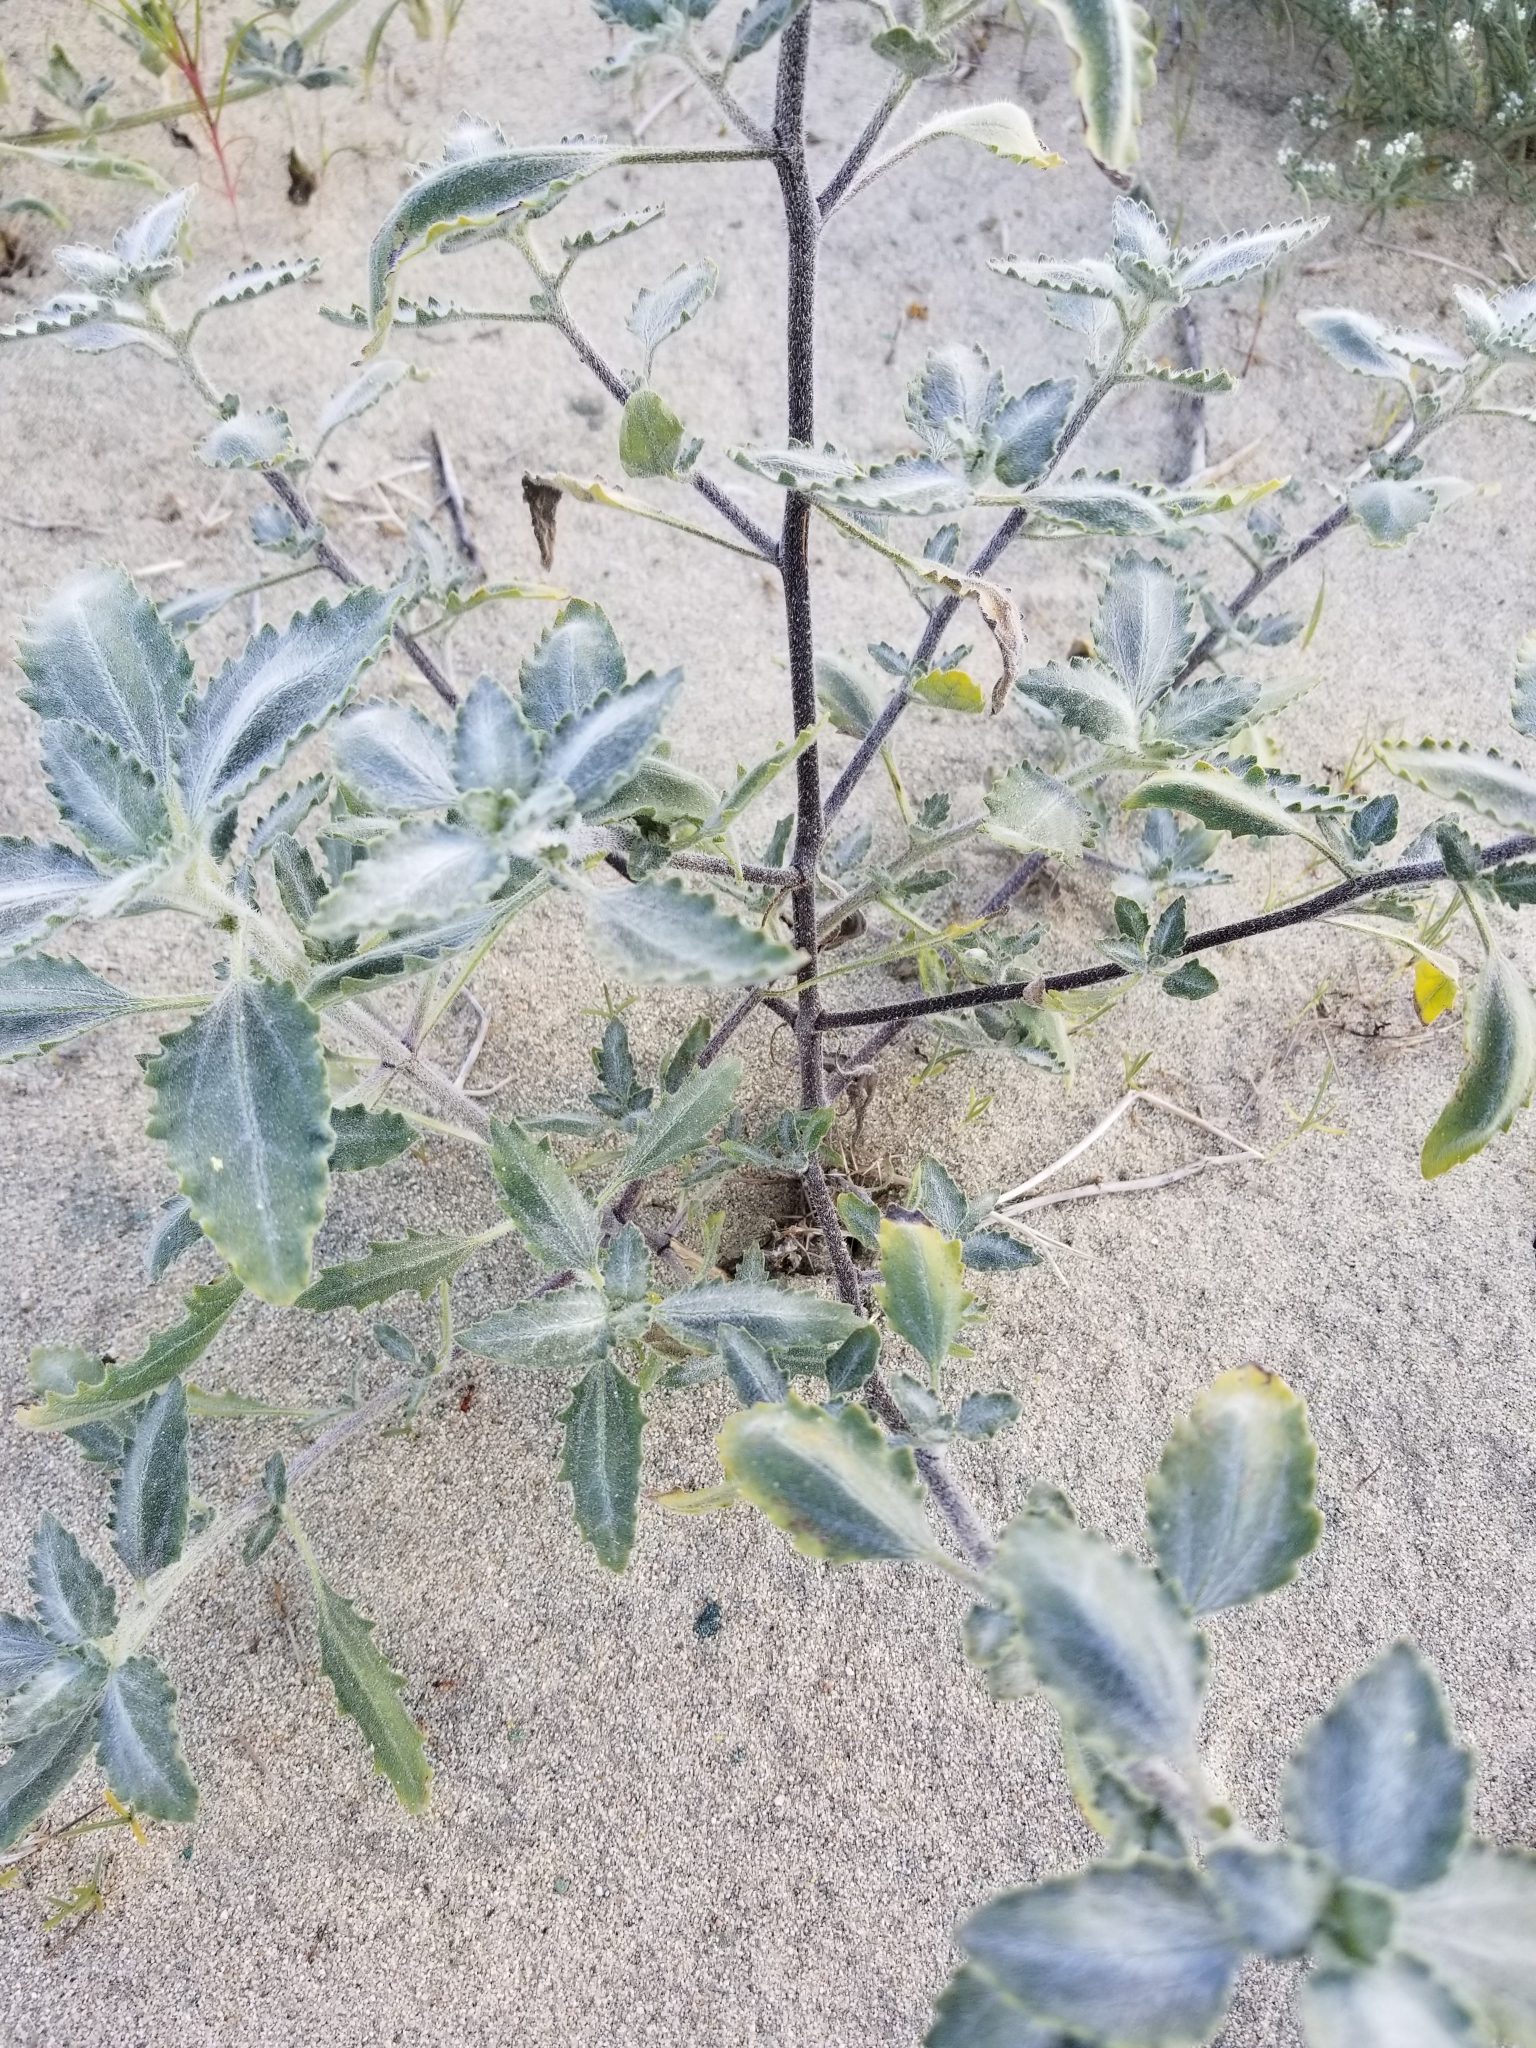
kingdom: Plantae
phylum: Tracheophyta
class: Magnoliopsida
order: Asterales
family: Asteraceae
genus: Dicoria
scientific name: Dicoria canescens
